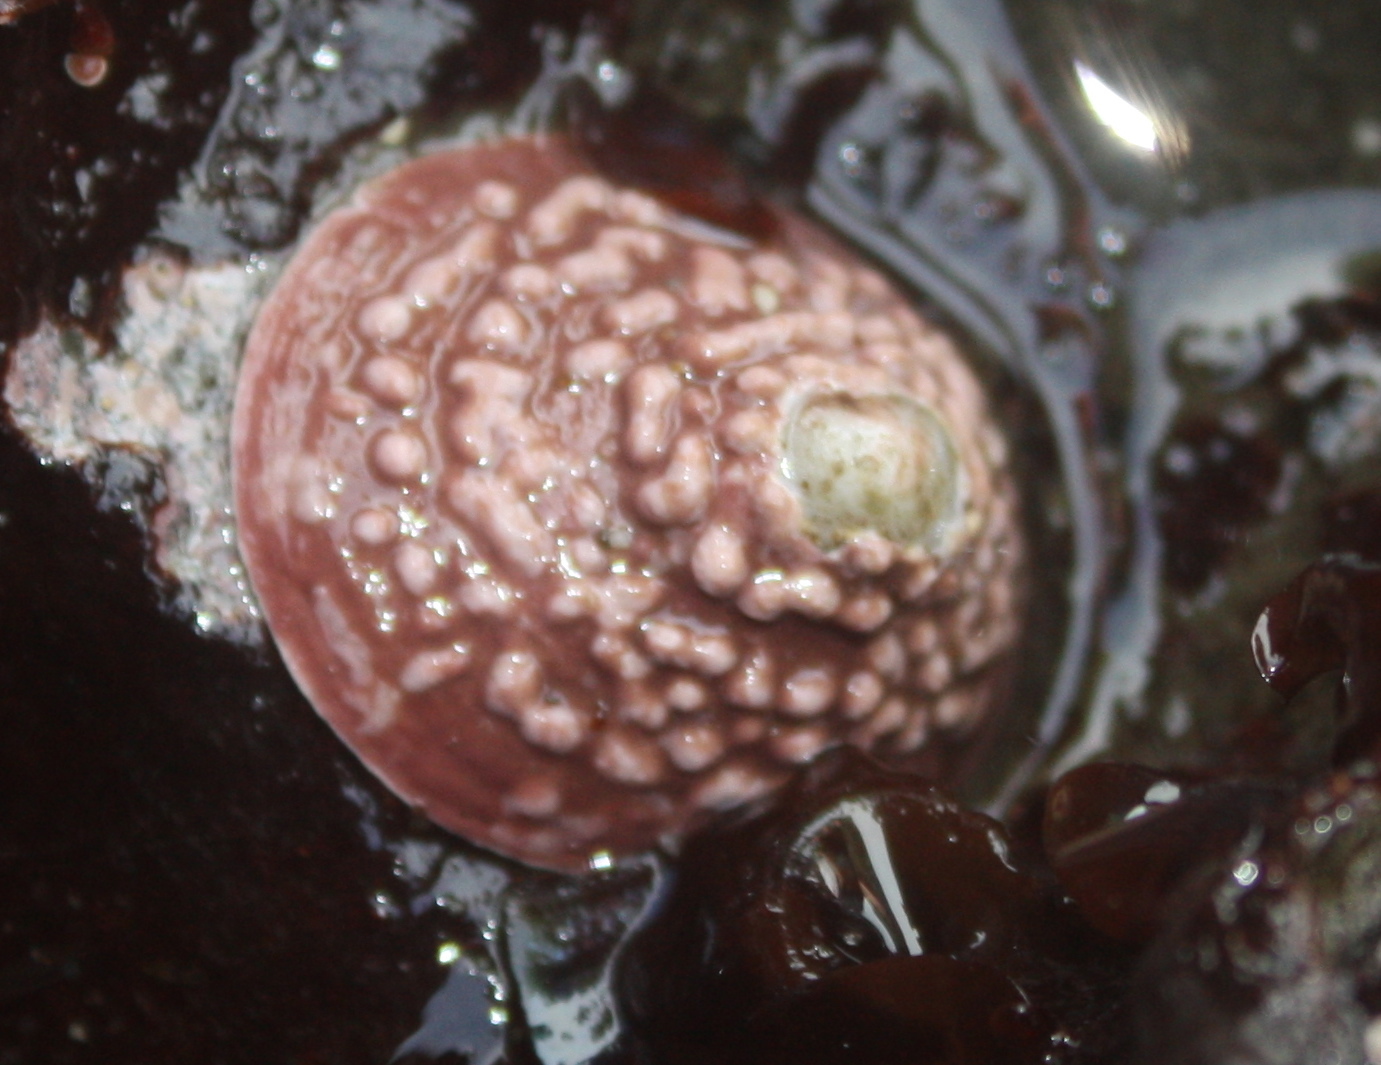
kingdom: Animalia
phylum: Mollusca
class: Gastropoda
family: Acmaeidae
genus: Acmaea
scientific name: Acmaea mitra
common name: Pacific white cap limpet
